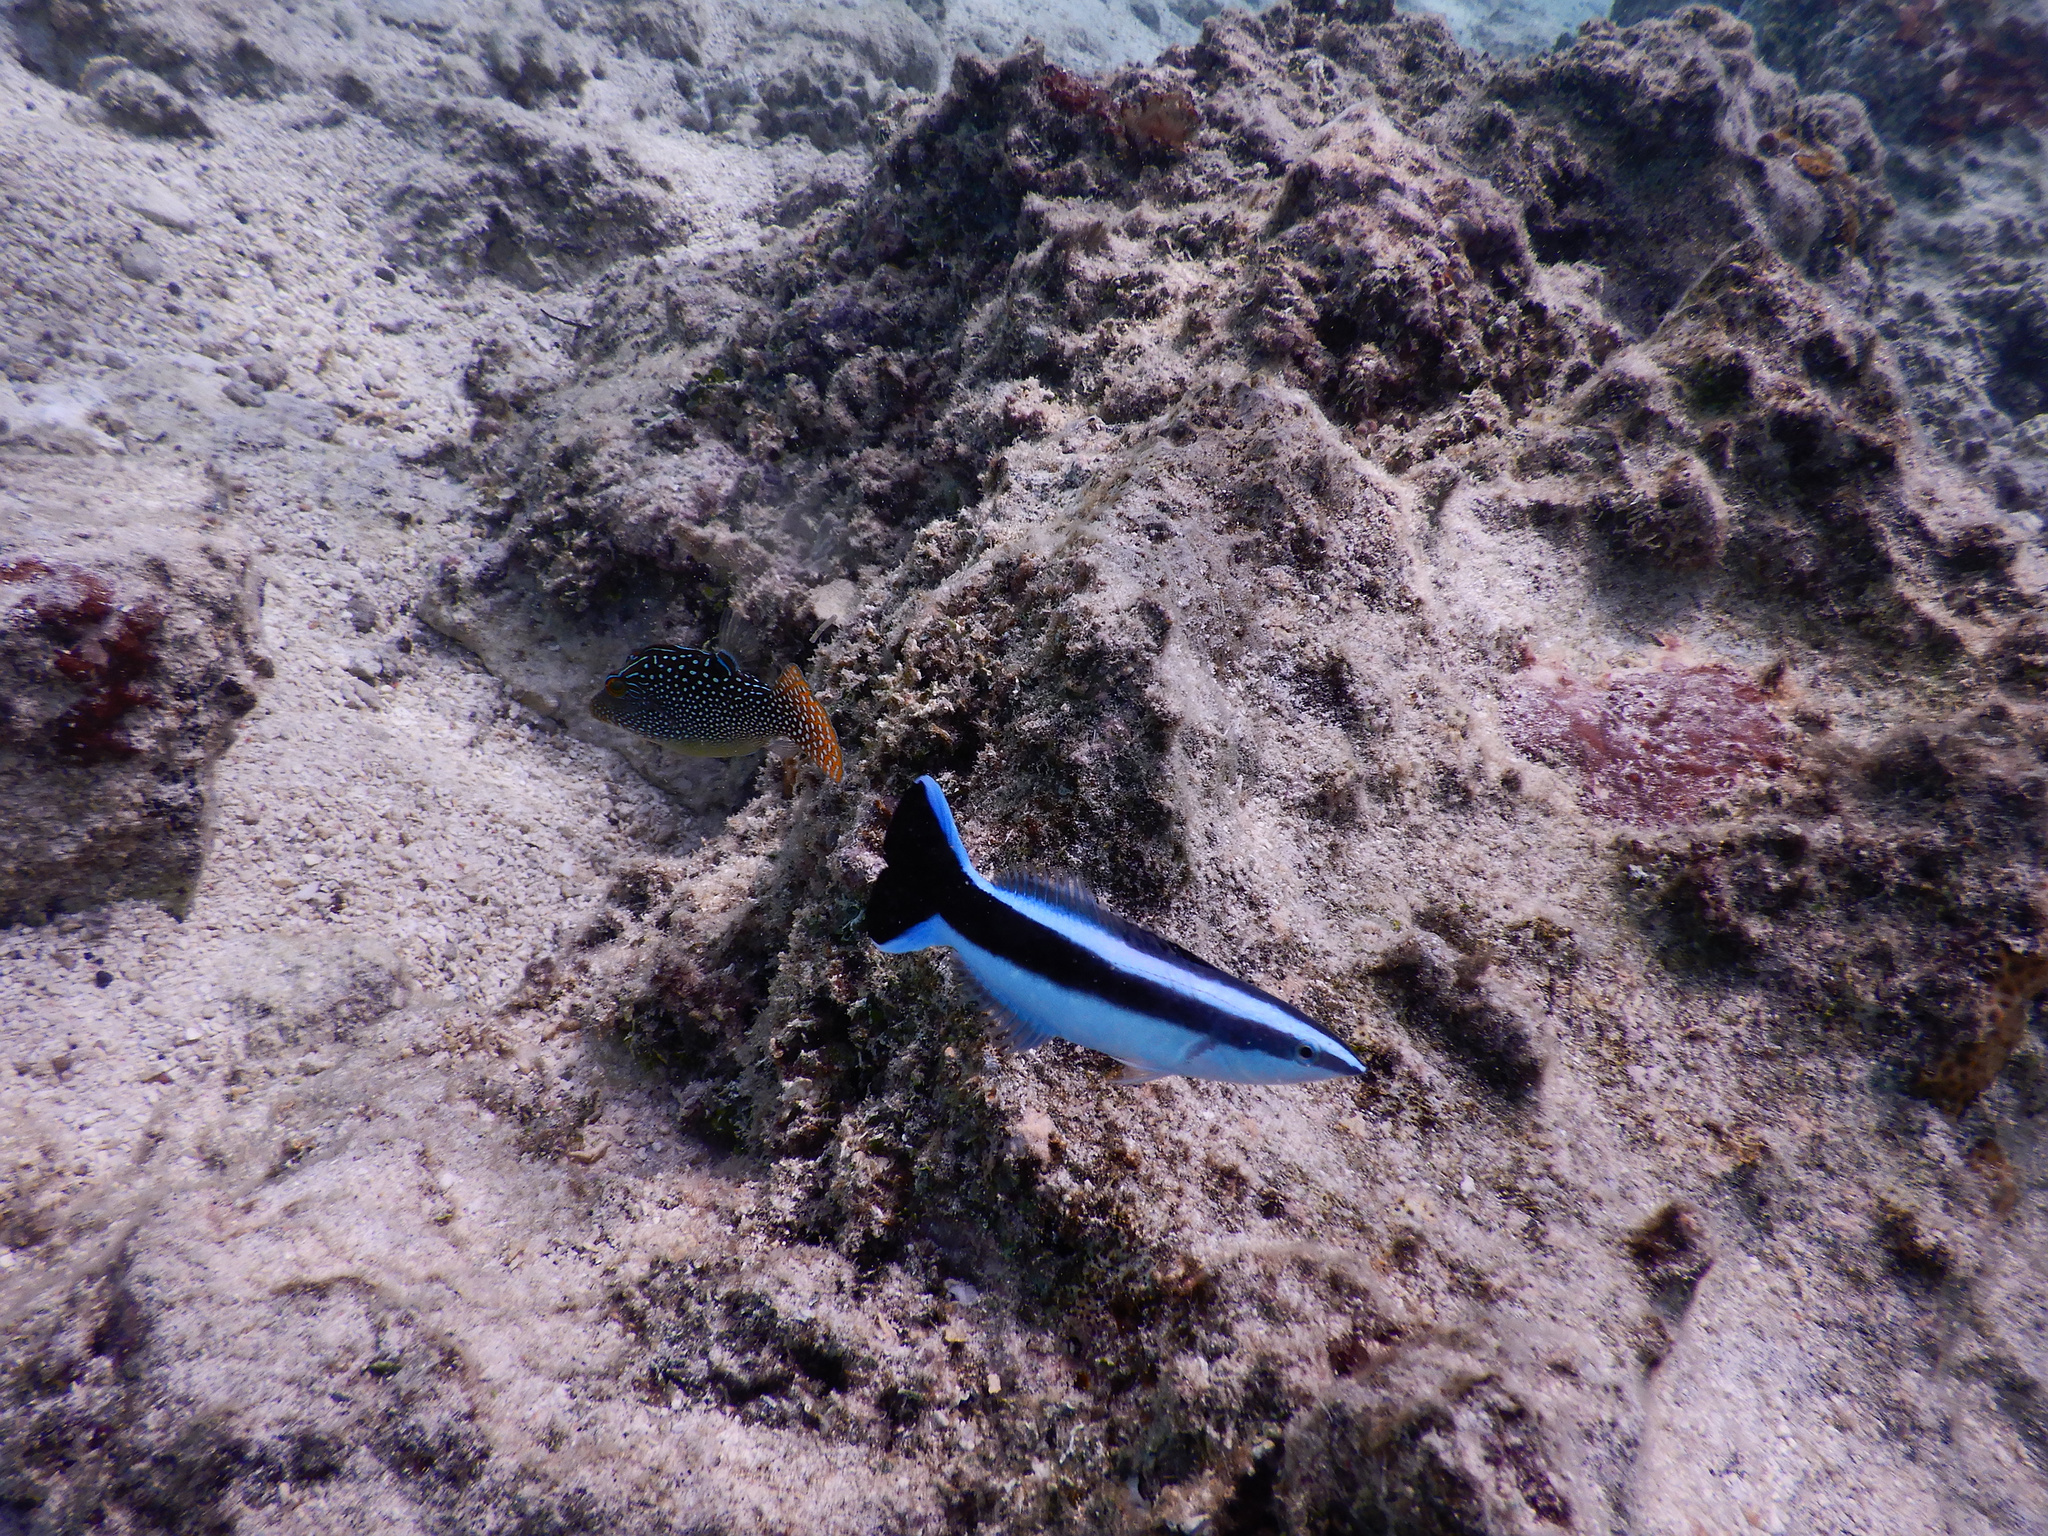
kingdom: Animalia
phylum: Chordata
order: Perciformes
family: Labridae
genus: Labroides
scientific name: Labroides dimidiatus
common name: Blue diesel wrasse
